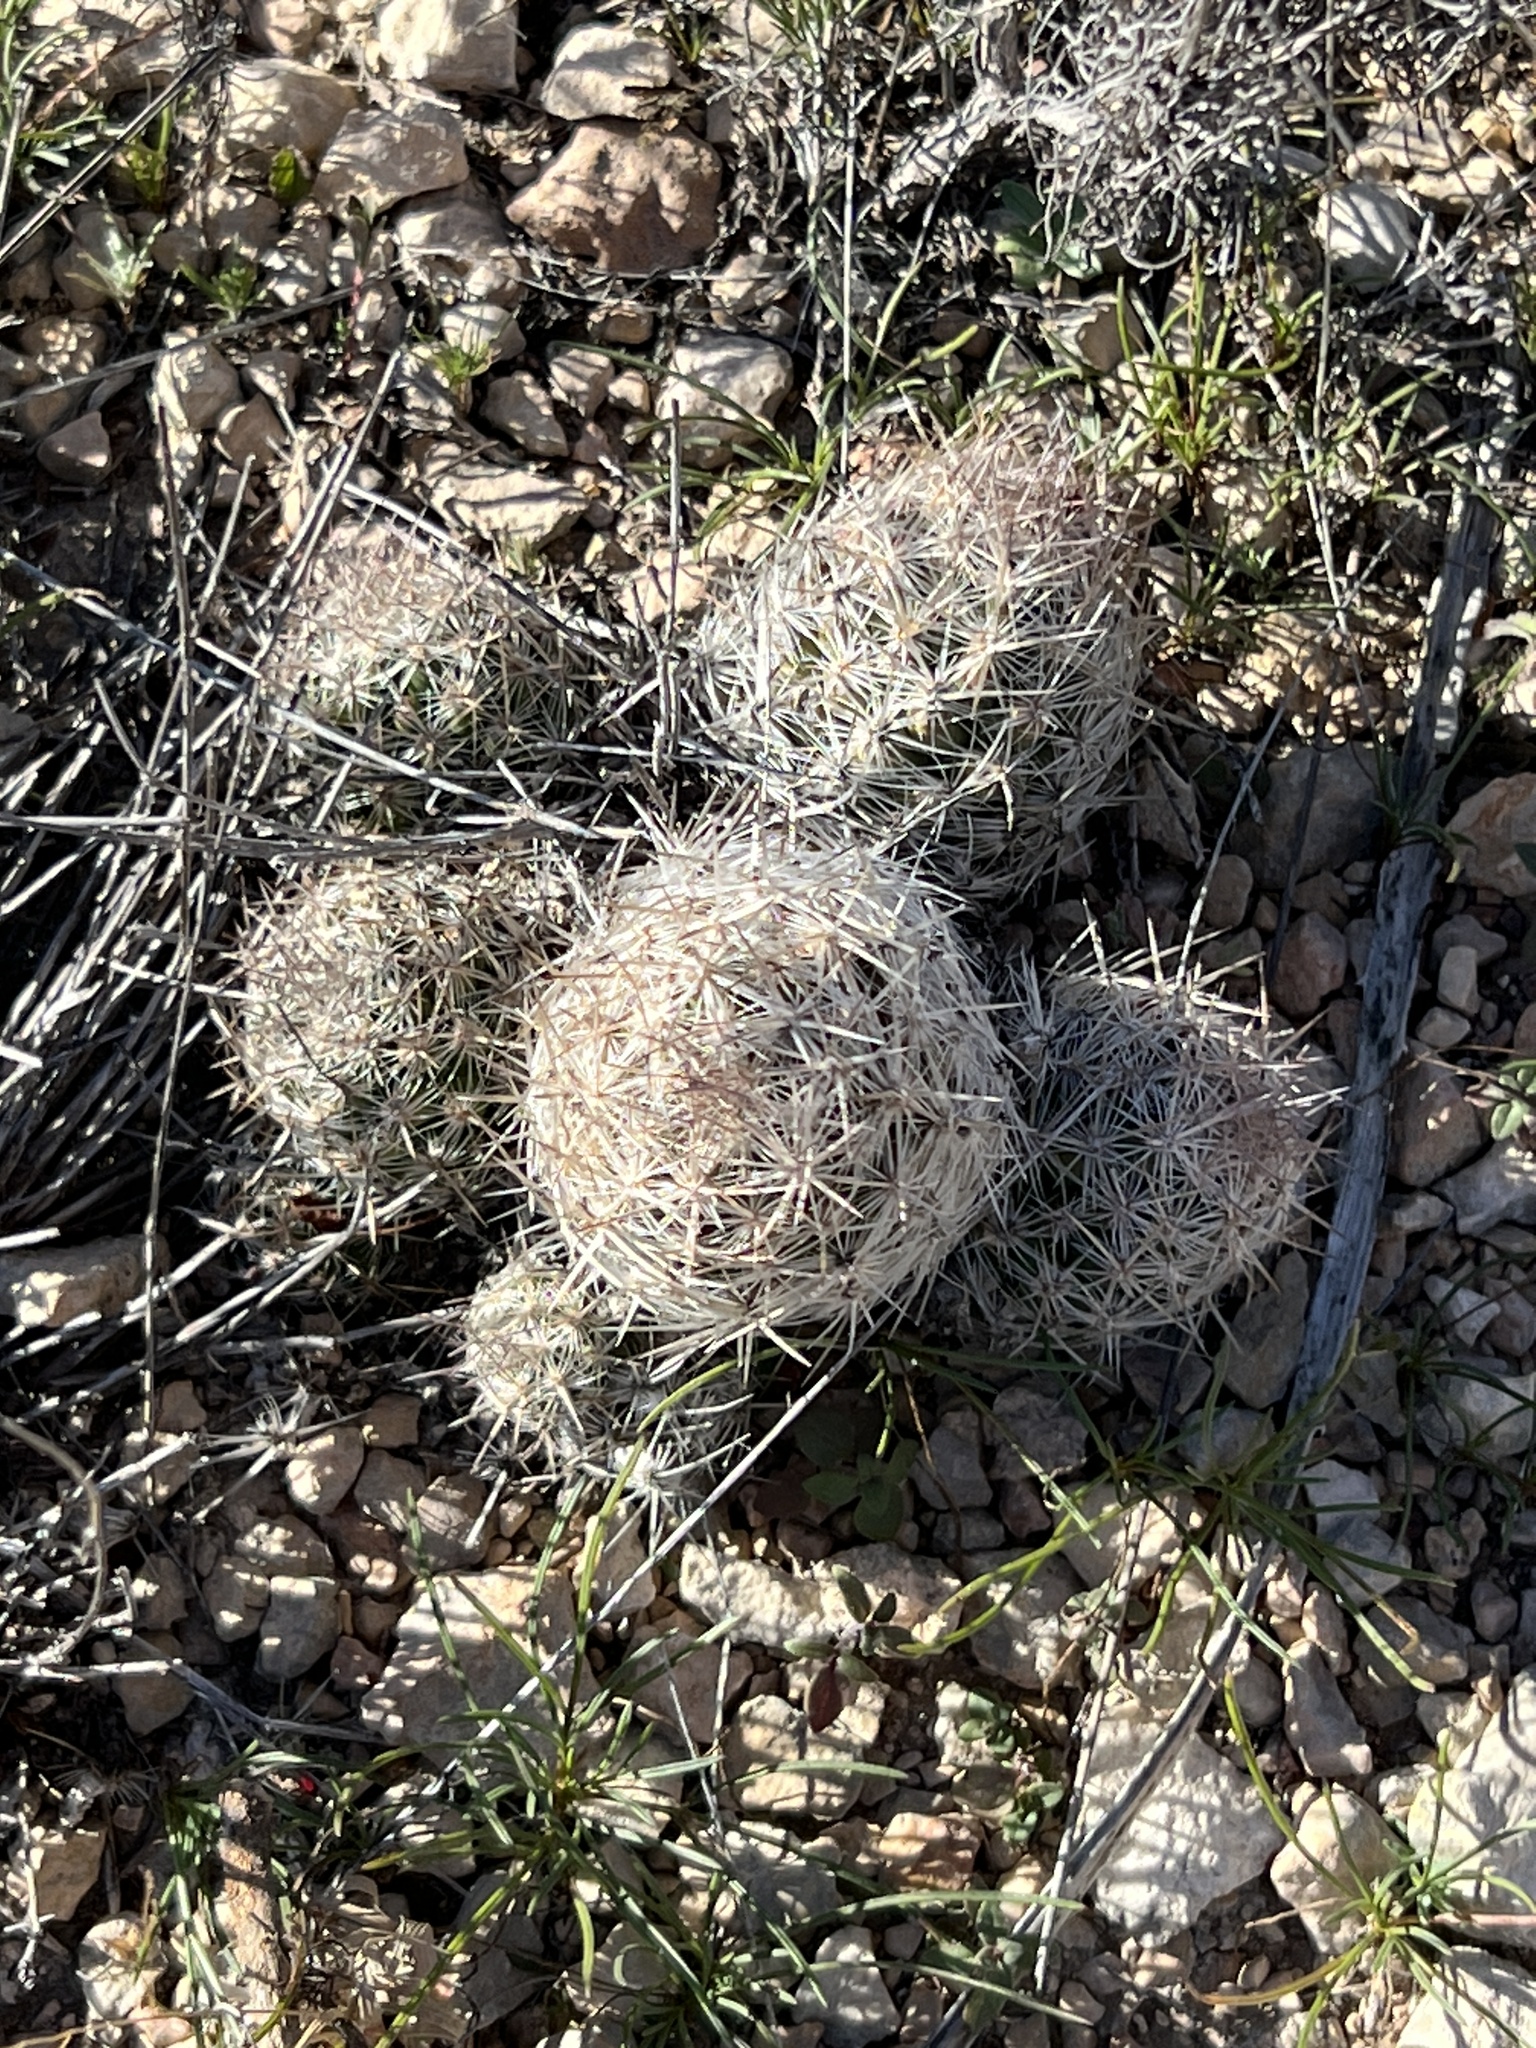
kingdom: Plantae
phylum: Tracheophyta
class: Magnoliopsida
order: Caryophyllales
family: Cactaceae
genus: Pelecyphora
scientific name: Pelecyphora tuberculosa
